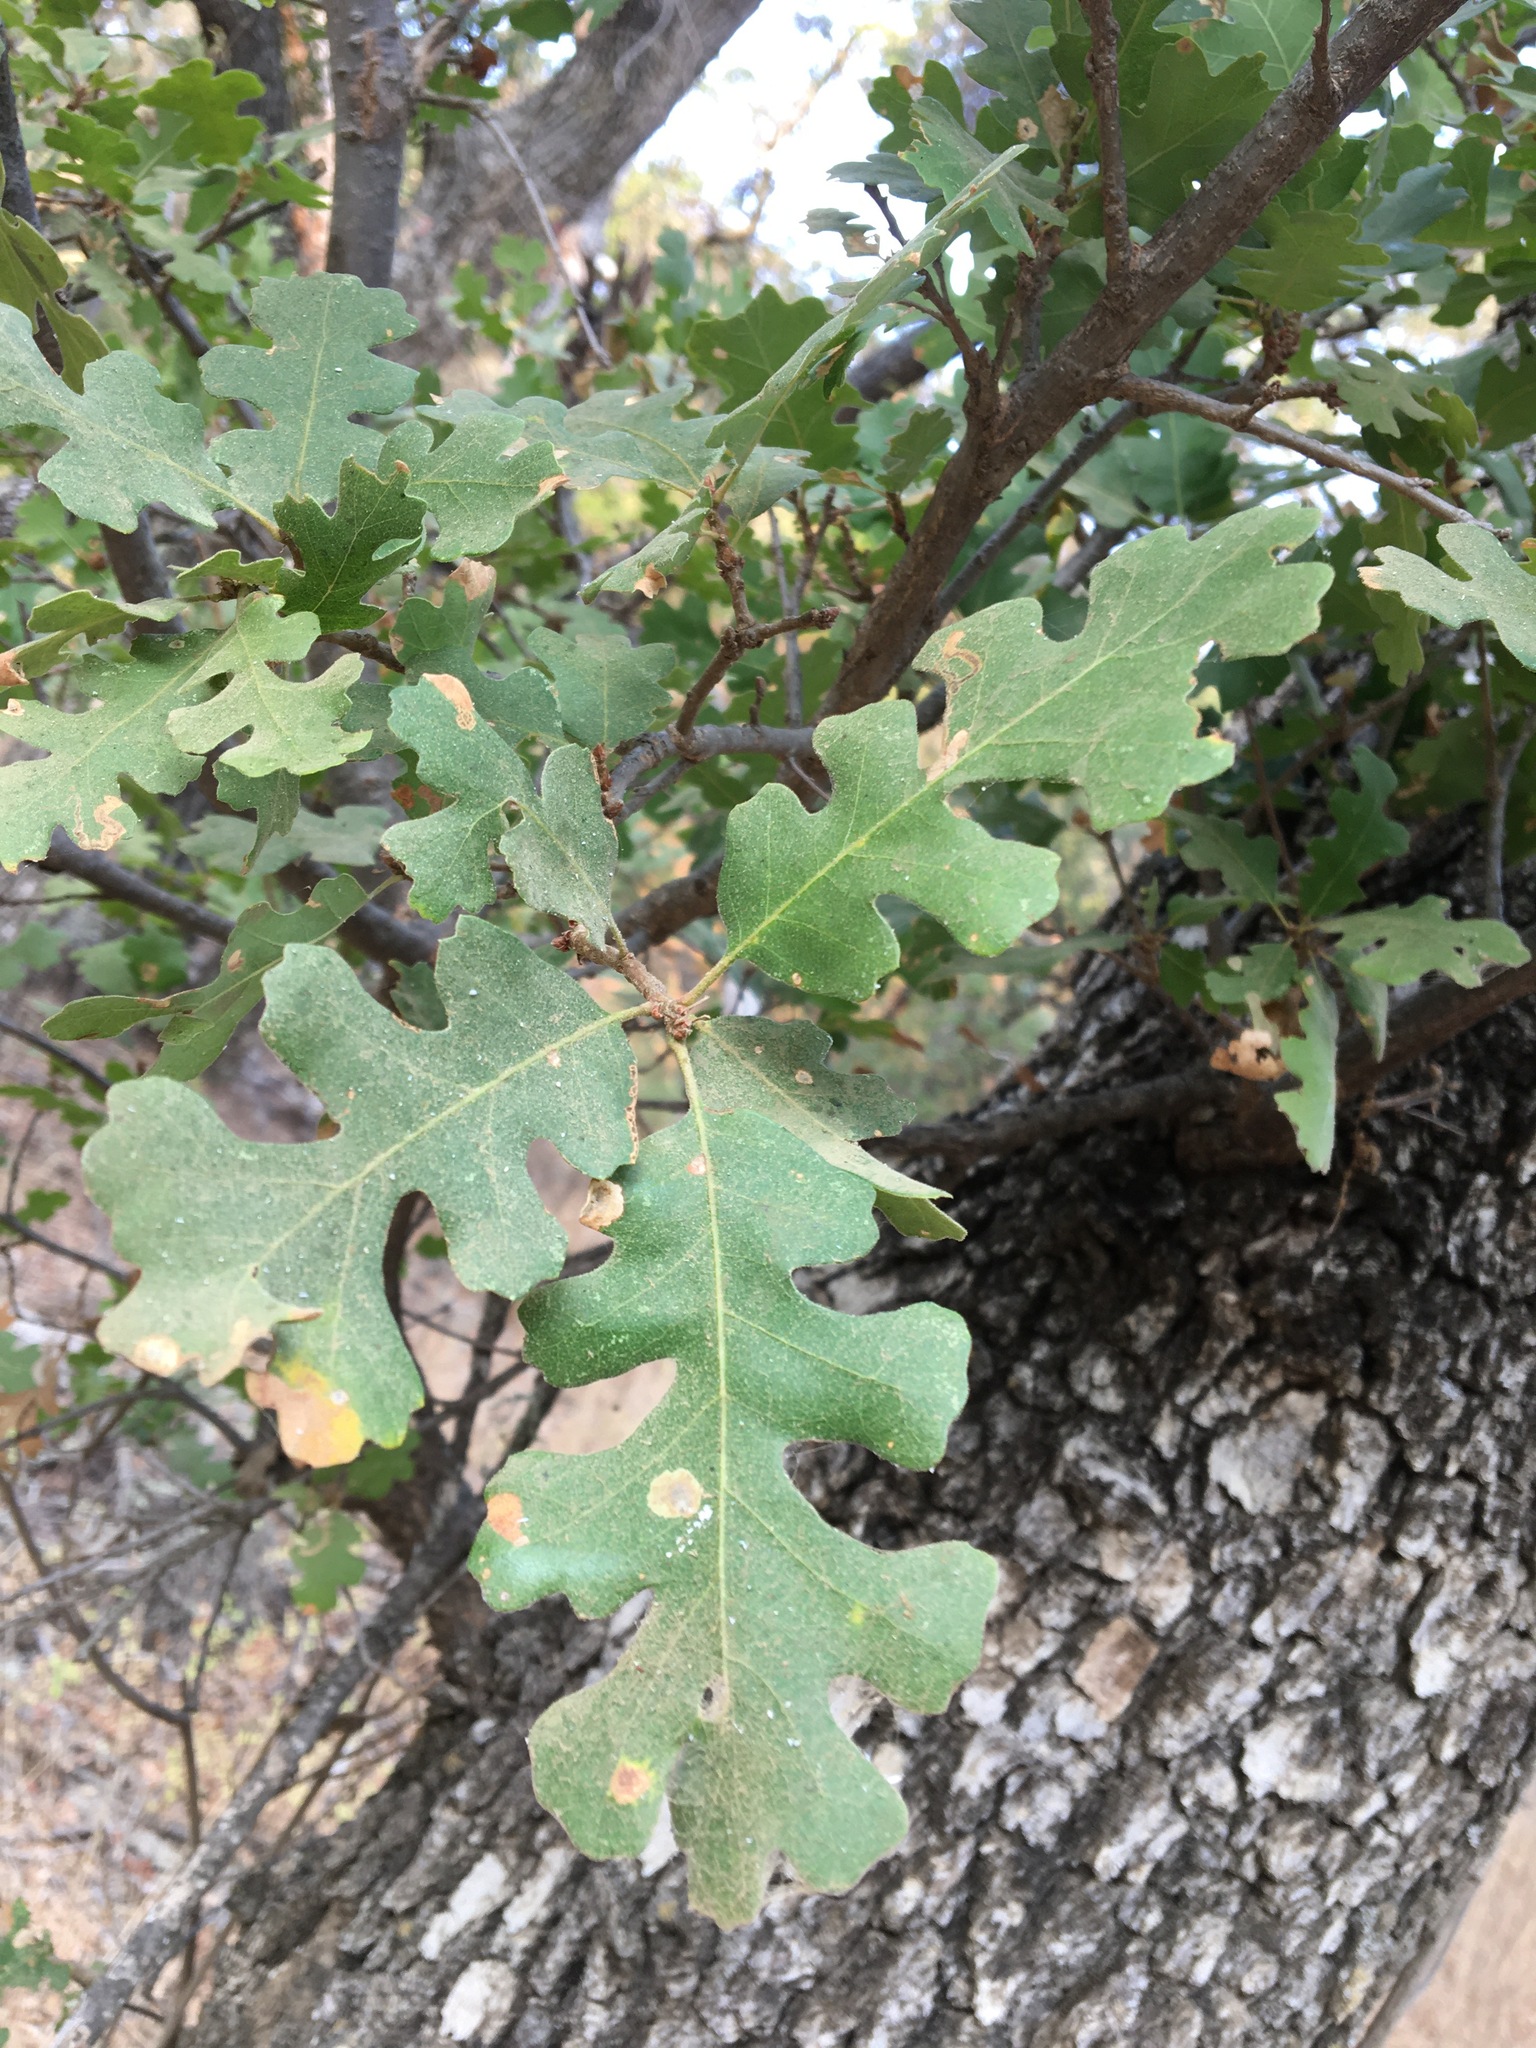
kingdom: Plantae
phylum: Tracheophyta
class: Magnoliopsida
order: Fagales
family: Fagaceae
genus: Quercus
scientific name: Quercus lobata
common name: Valley oak
